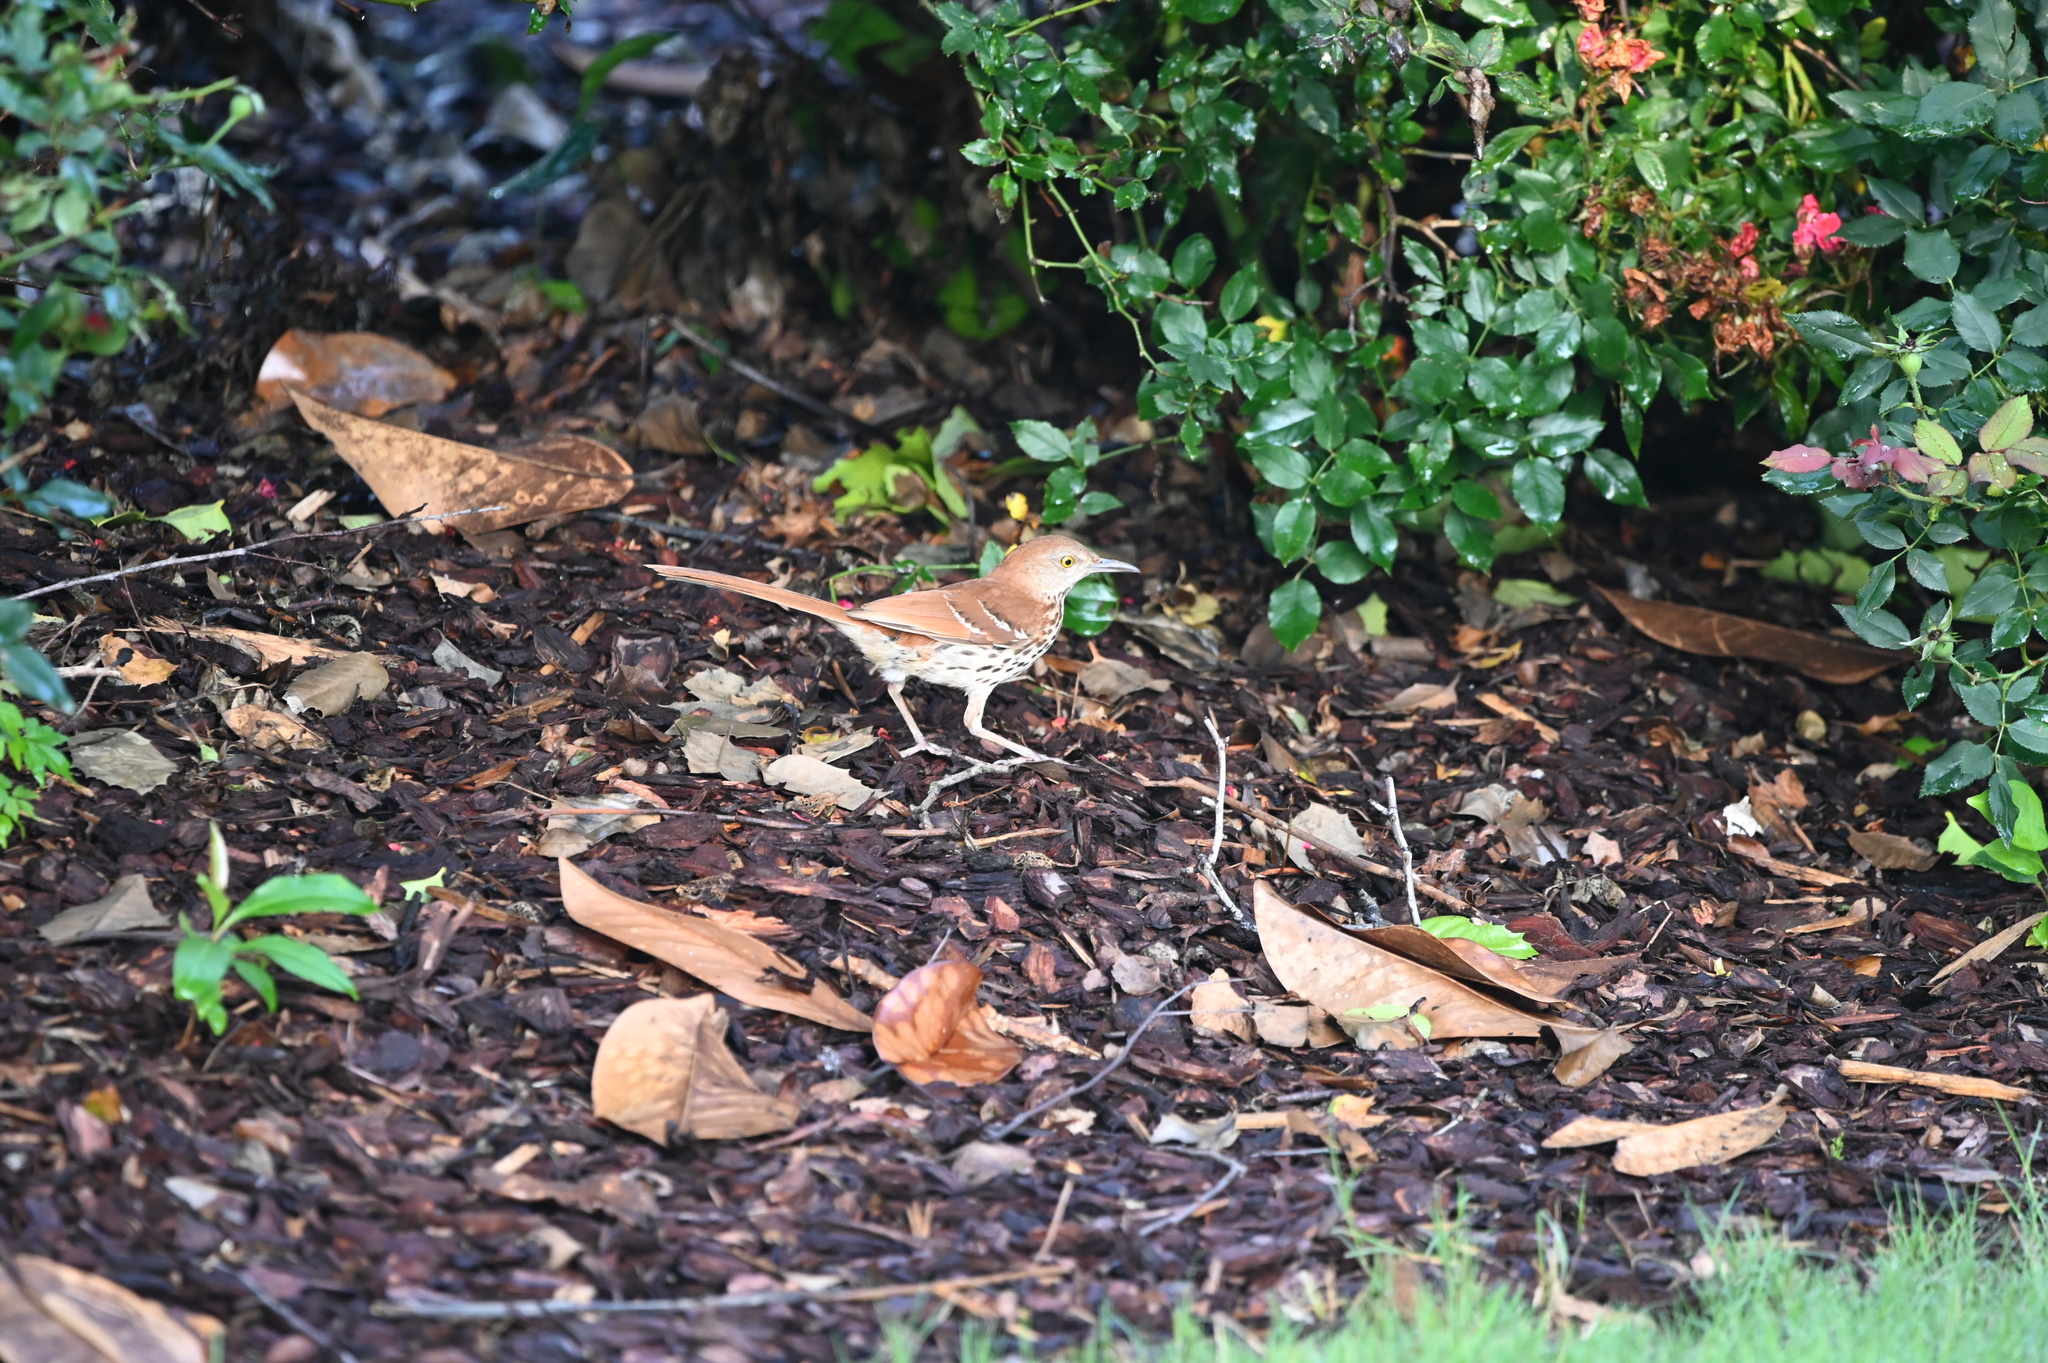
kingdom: Animalia
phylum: Chordata
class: Aves
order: Passeriformes
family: Mimidae
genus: Toxostoma
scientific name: Toxostoma rufum
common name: Brown thrasher
